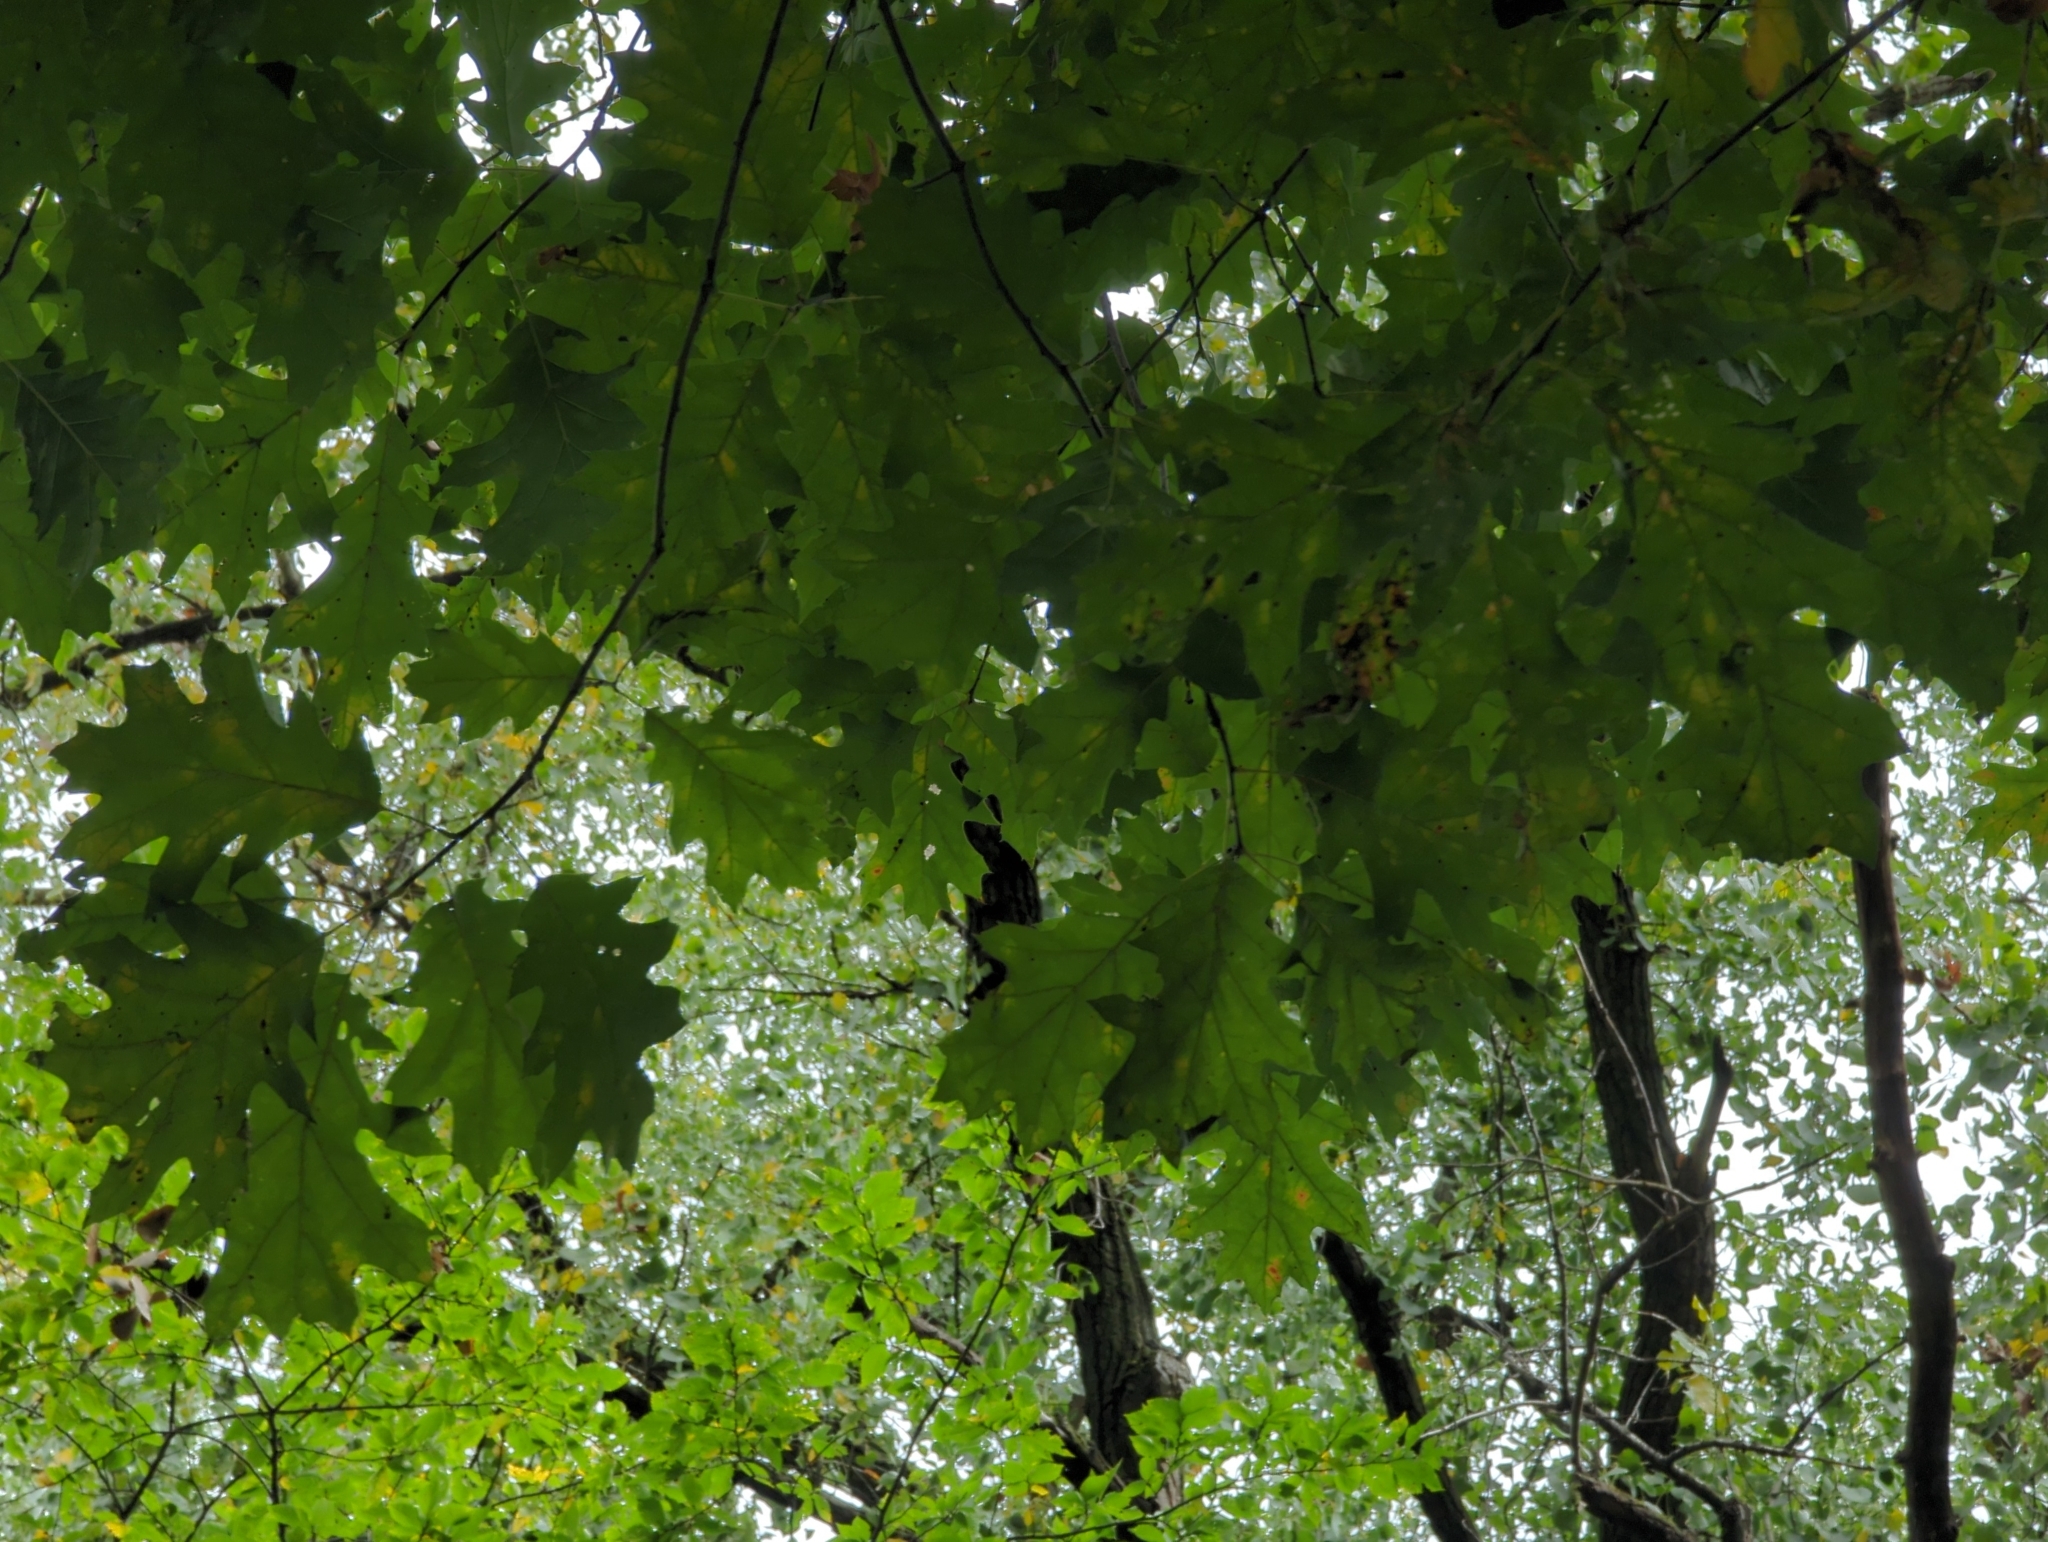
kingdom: Plantae
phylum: Tracheophyta
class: Magnoliopsida
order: Fagales
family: Fagaceae
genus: Quercus
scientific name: Quercus rubra
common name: Red oak
